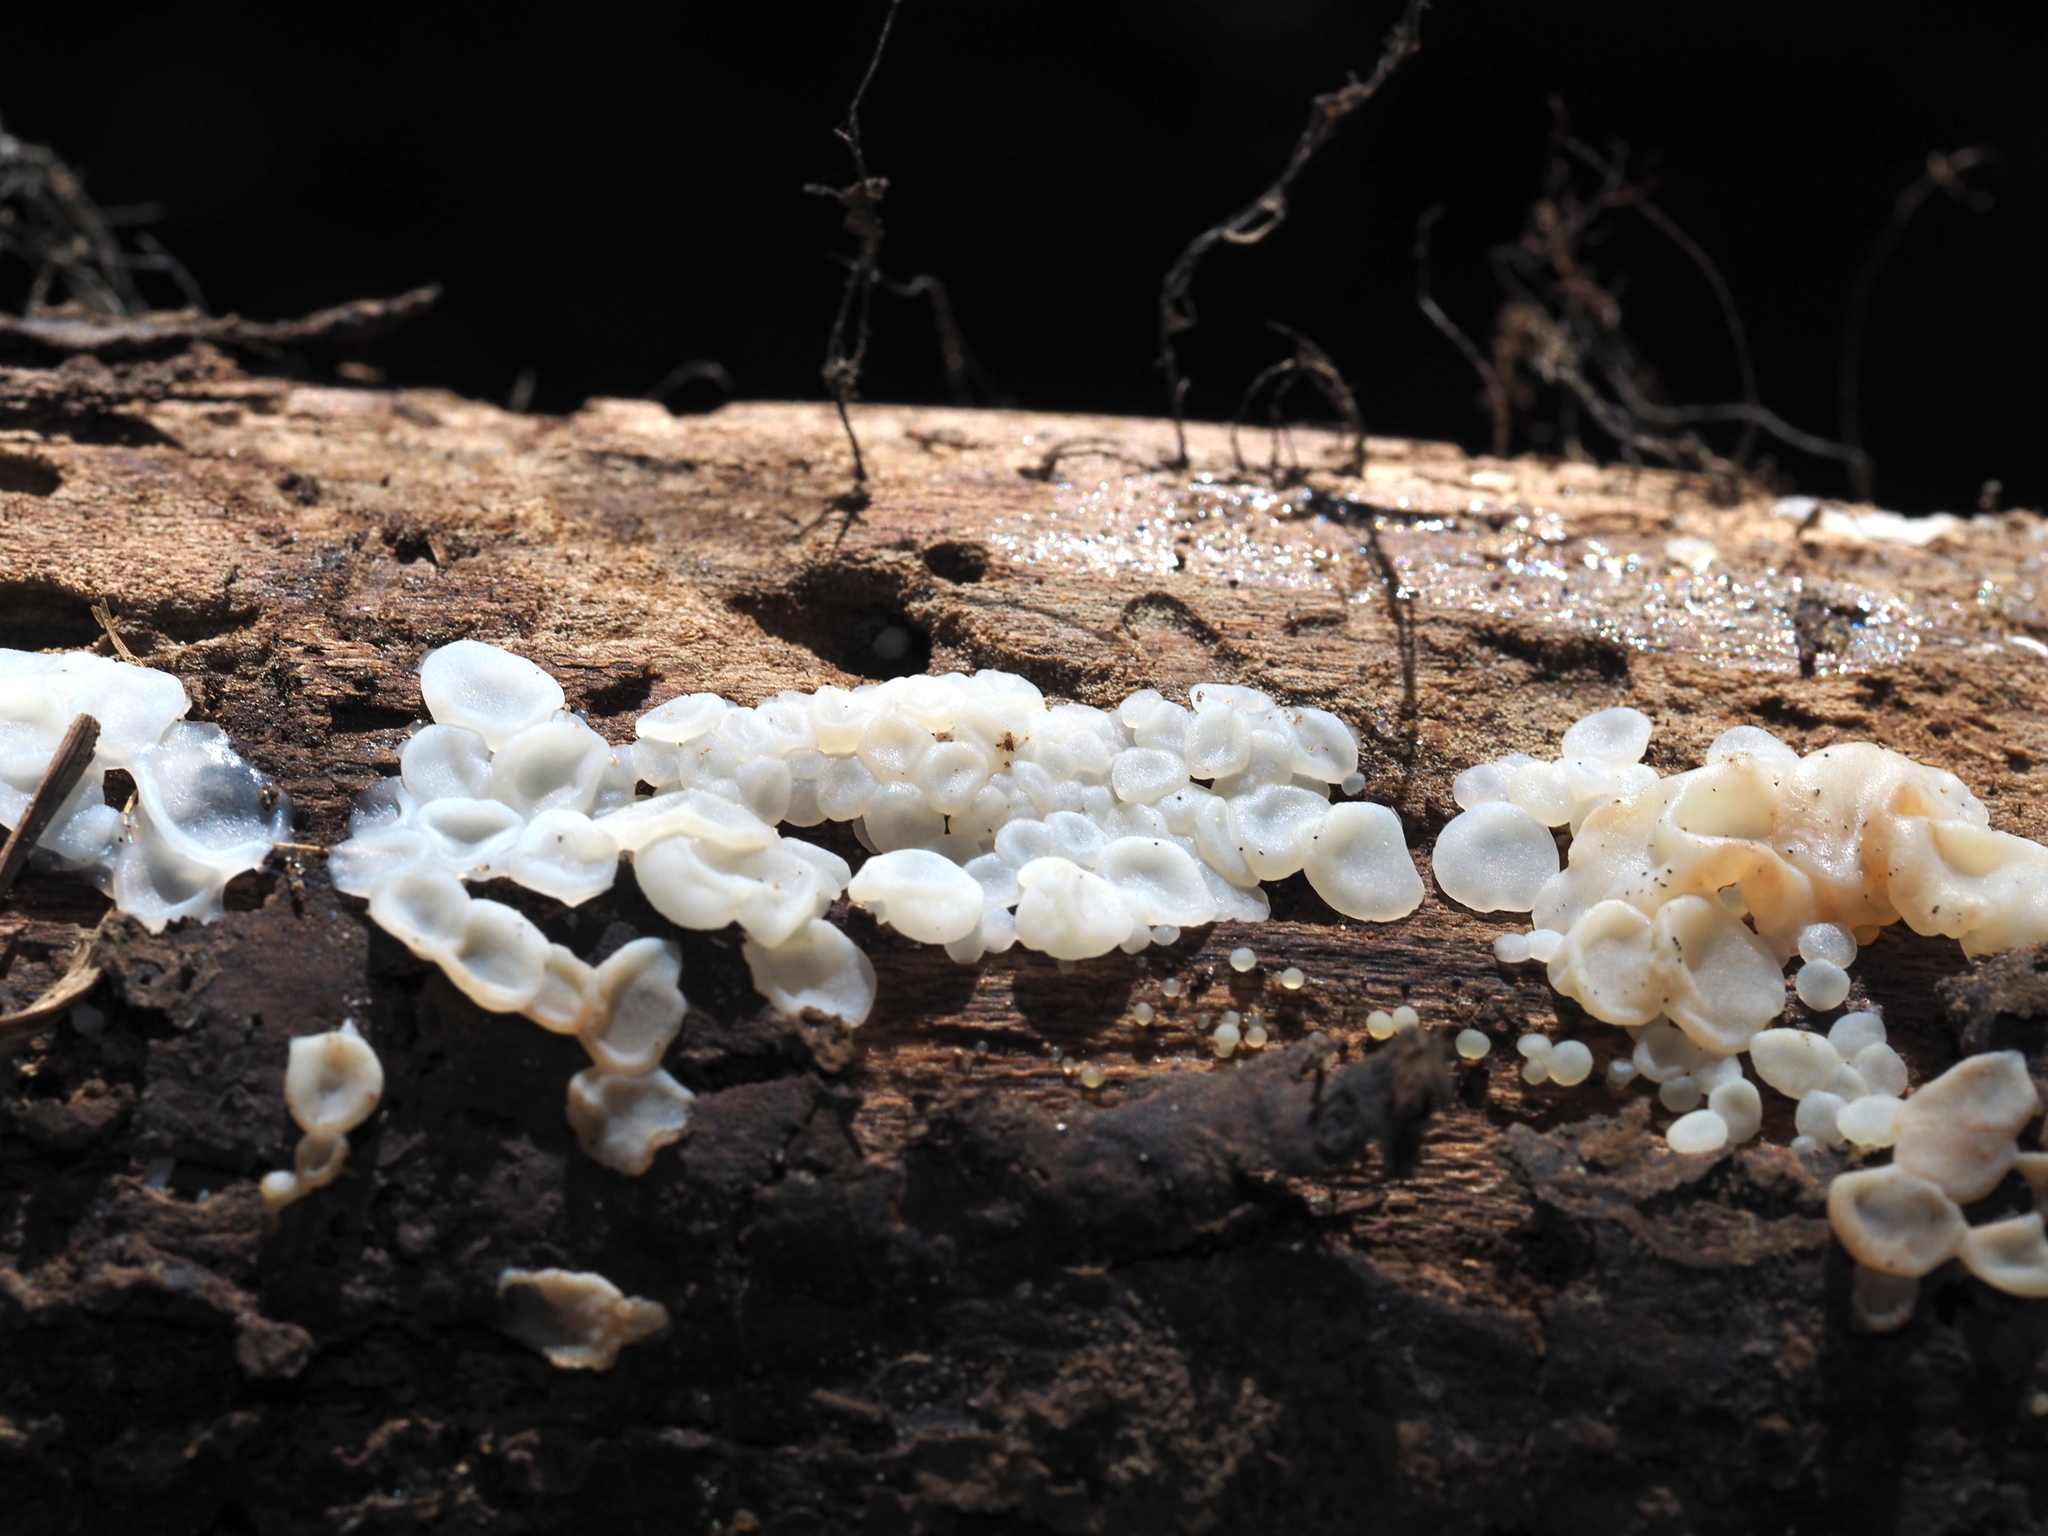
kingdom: Fungi
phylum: Basidiomycota
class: Agaricomycetes
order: Auriculariales
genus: Ductifera
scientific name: Ductifera pululahuana
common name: White jelly fungus
